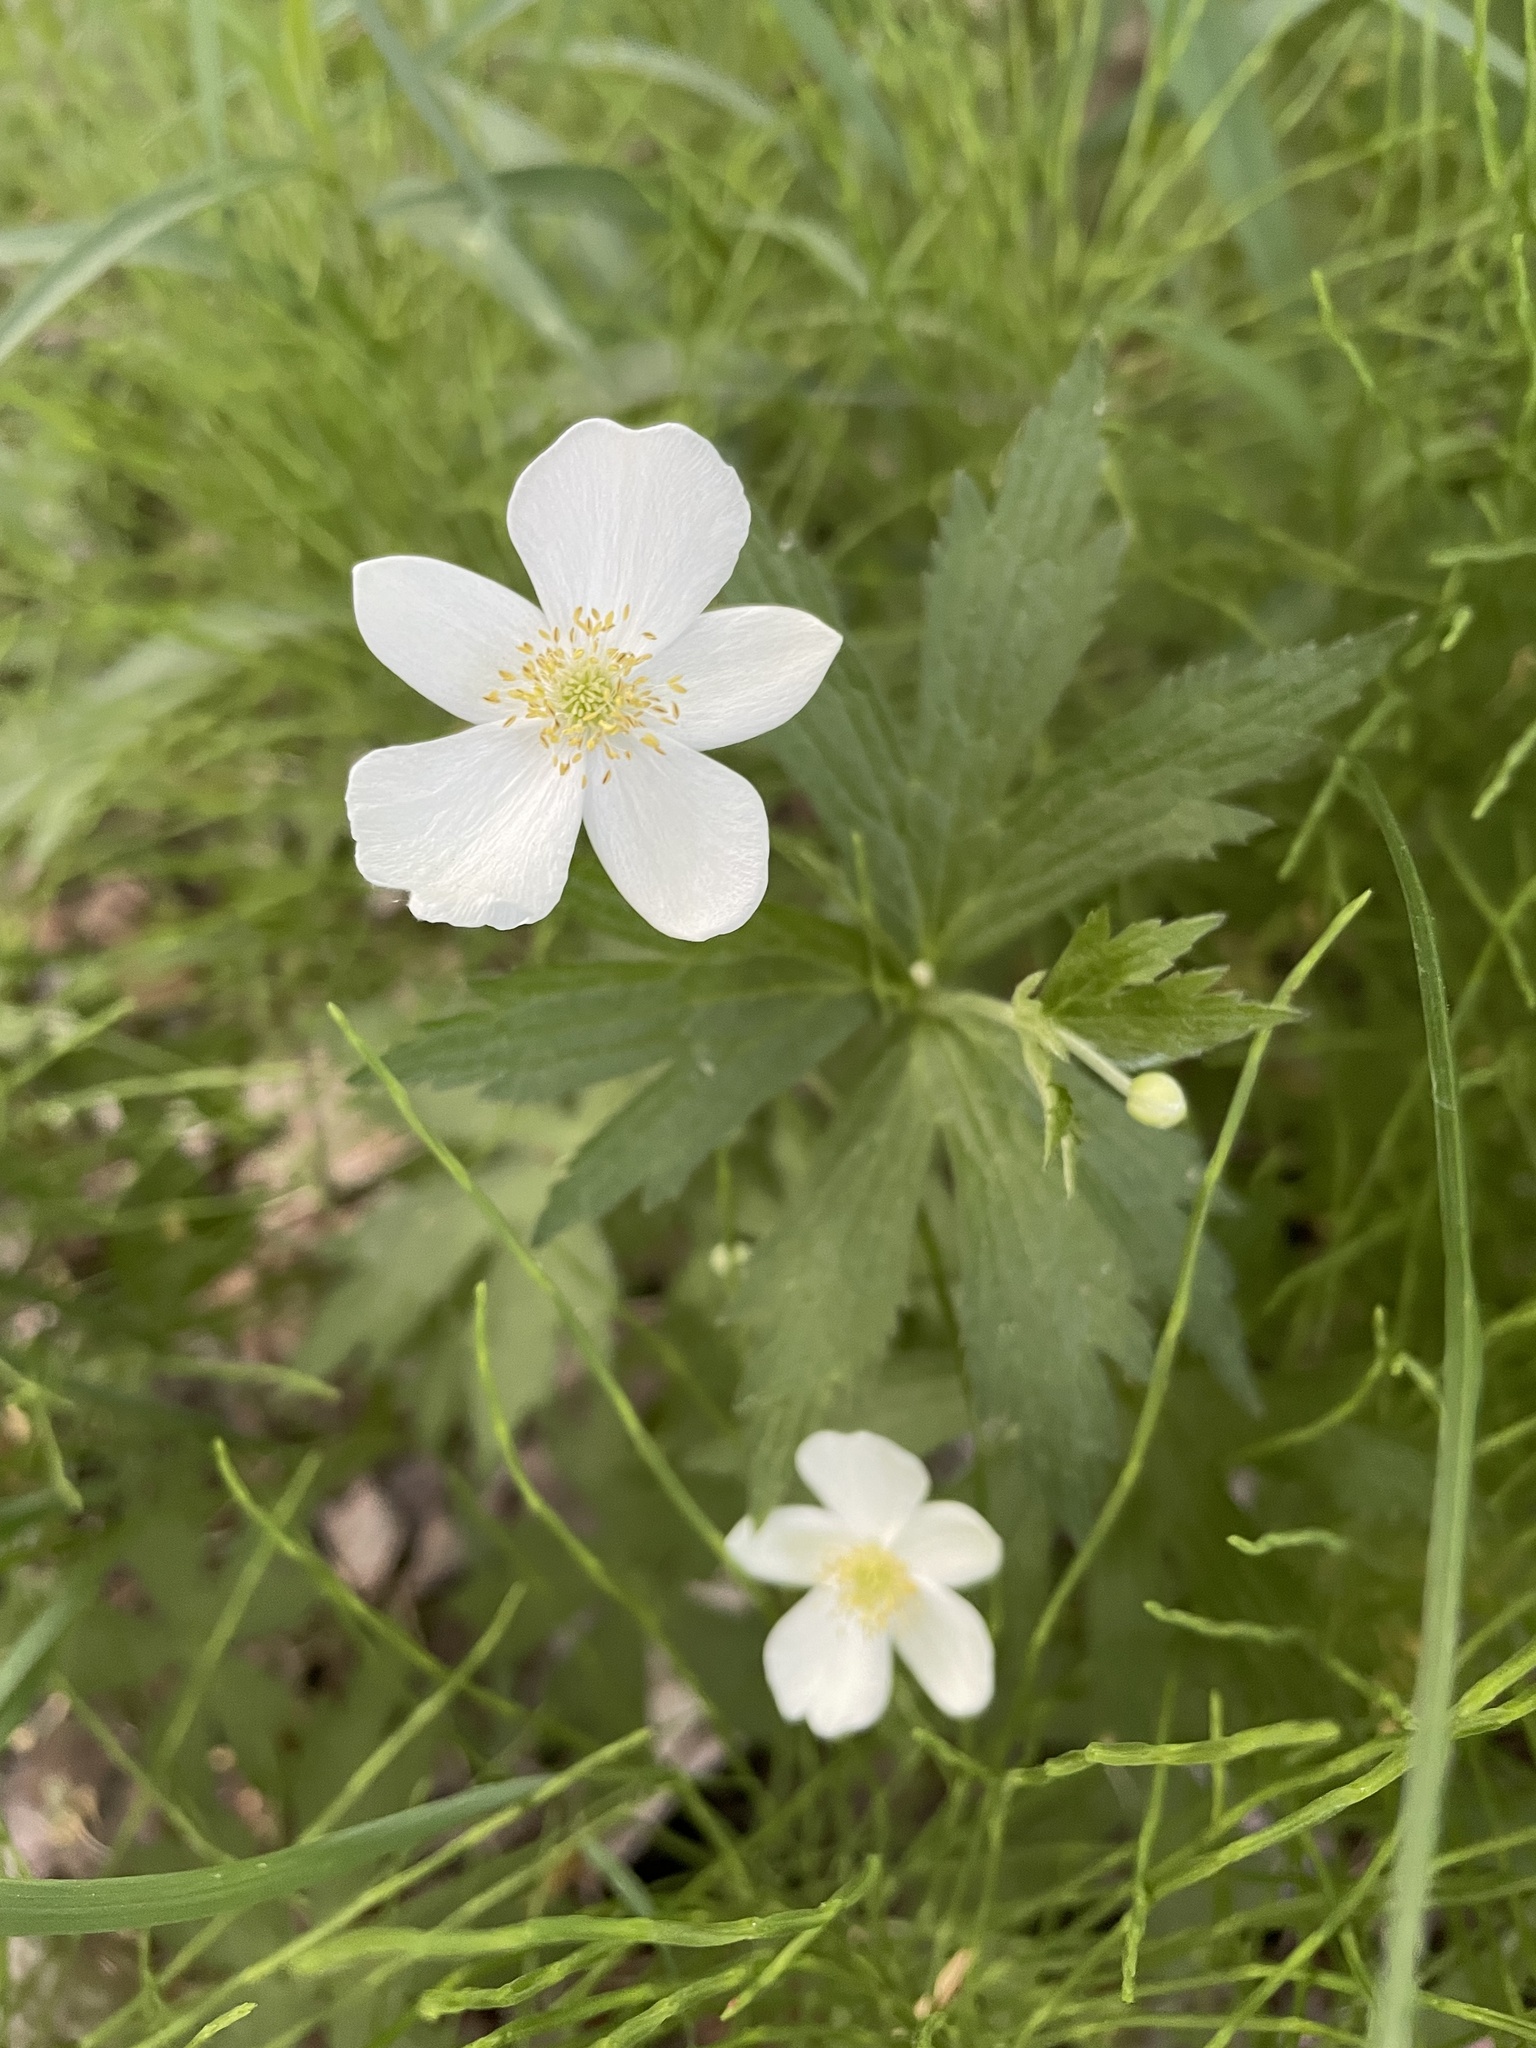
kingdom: Plantae
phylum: Tracheophyta
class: Magnoliopsida
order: Ranunculales
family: Ranunculaceae
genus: Anemonastrum
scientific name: Anemonastrum canadense
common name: Canada anemone
